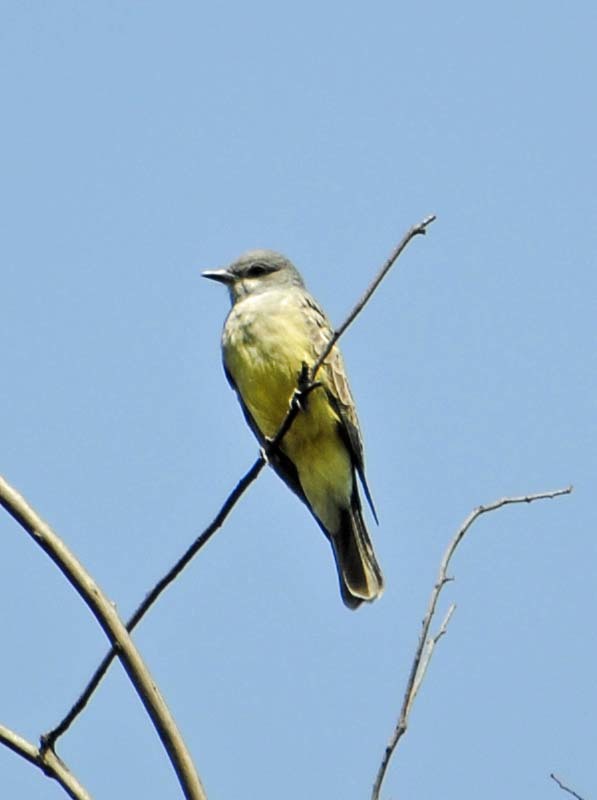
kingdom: Animalia
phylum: Chordata
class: Aves
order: Passeriformes
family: Tyrannidae
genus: Tyrannus
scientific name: Tyrannus vociferans
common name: Cassin's kingbird
